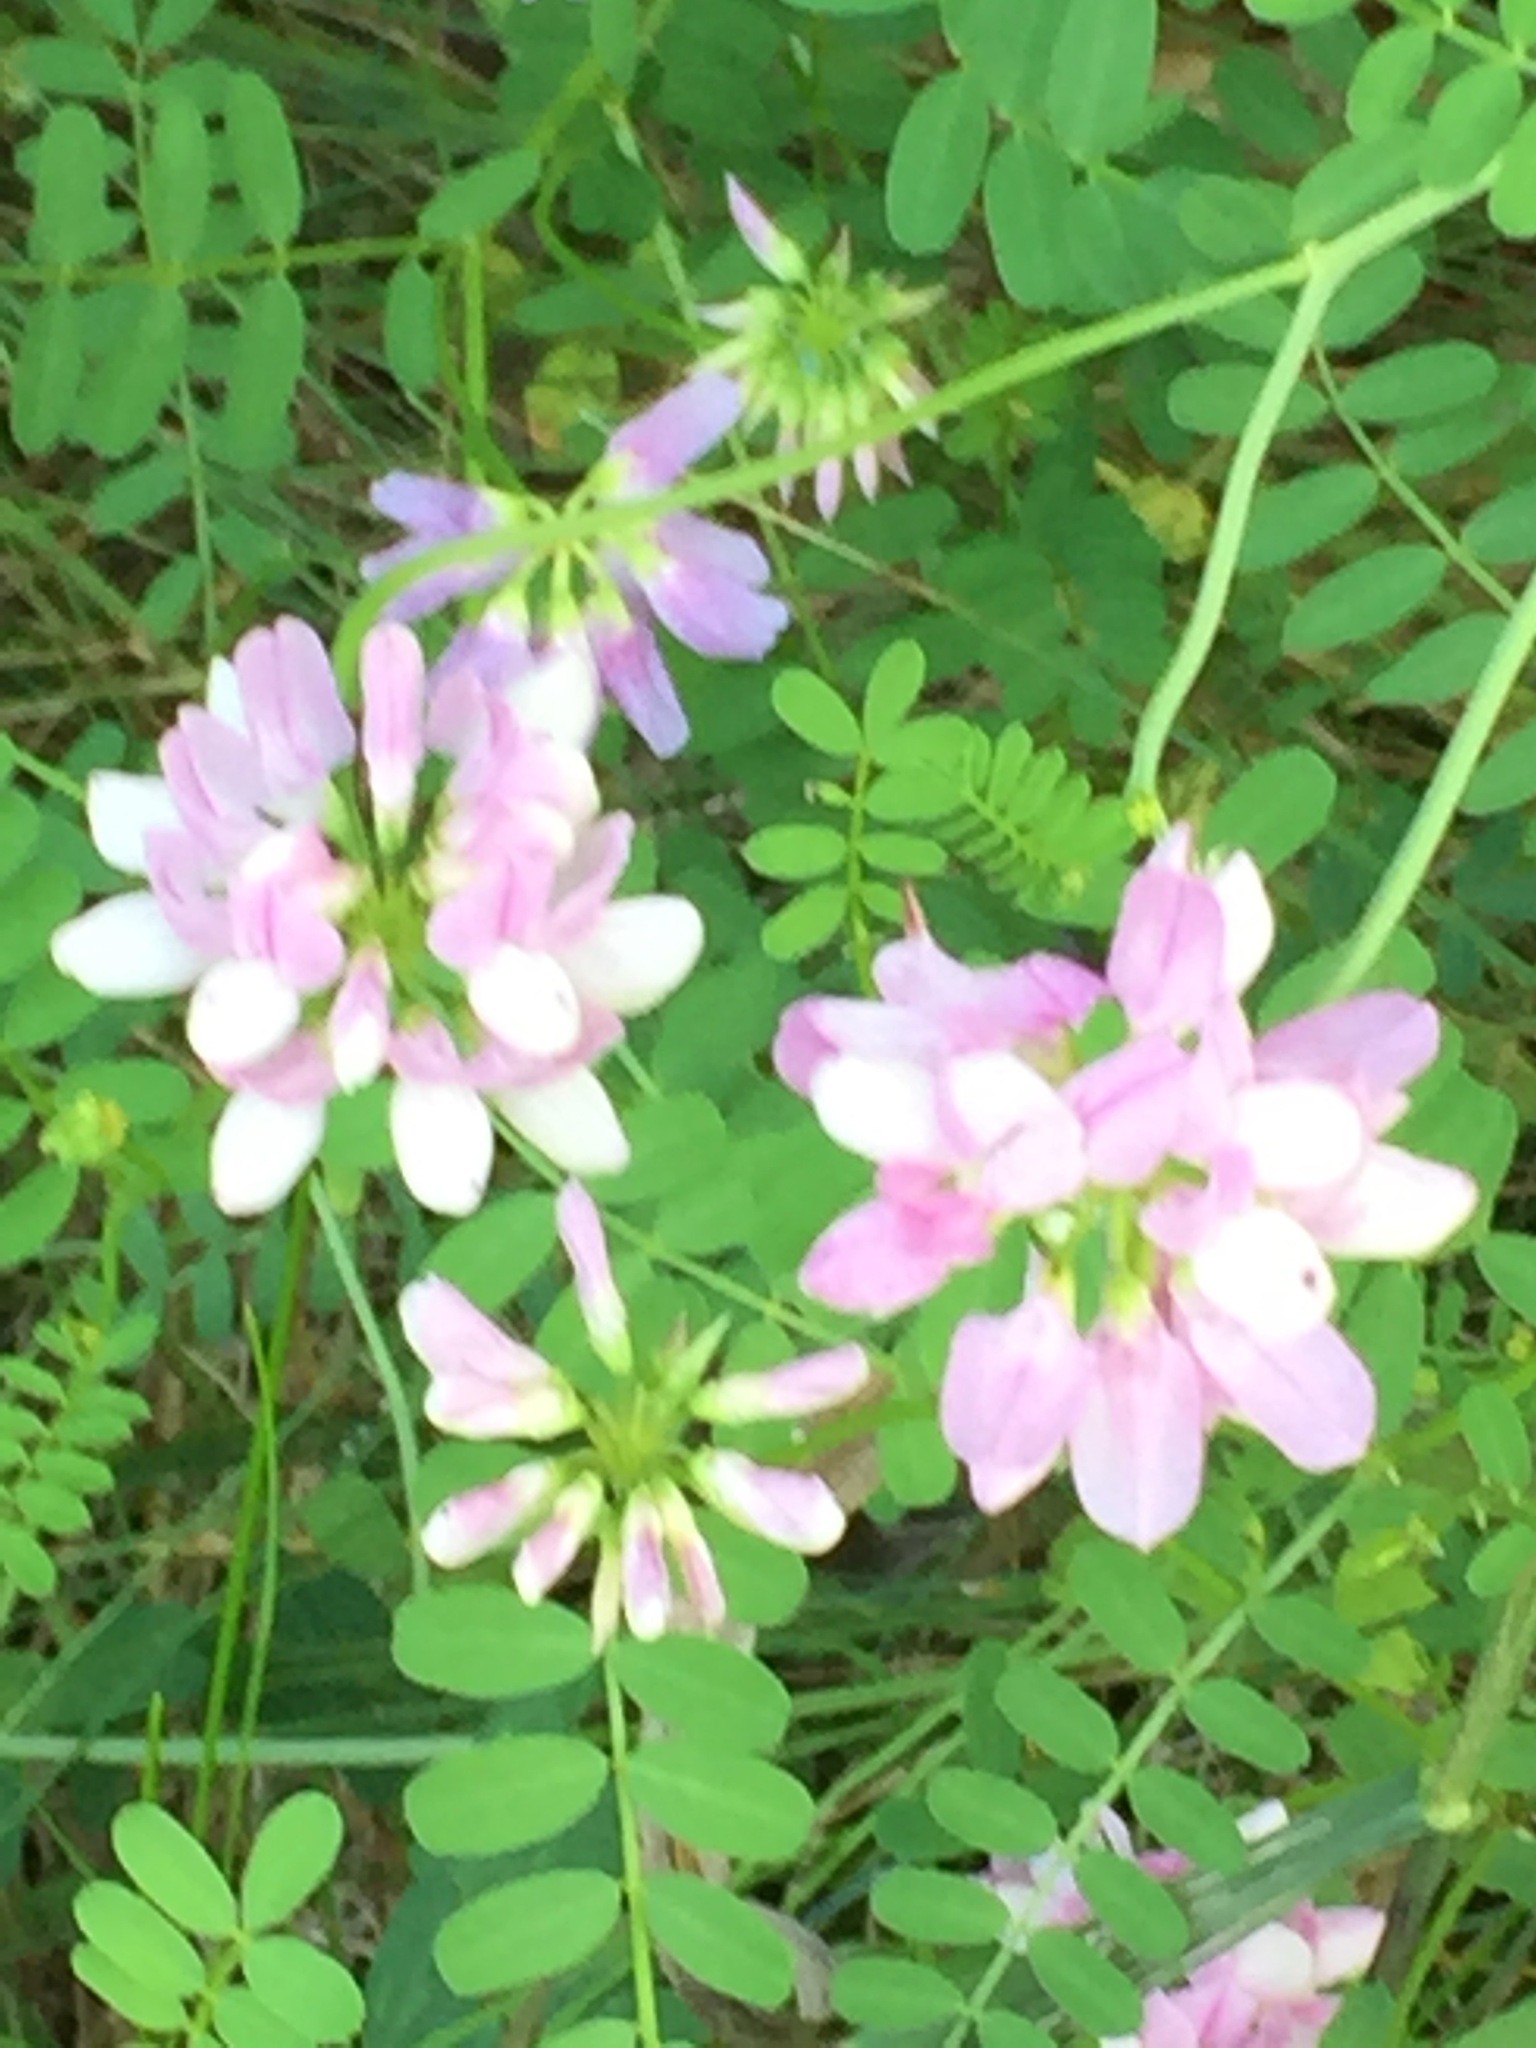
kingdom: Plantae
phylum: Tracheophyta
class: Magnoliopsida
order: Fabales
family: Fabaceae
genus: Coronilla
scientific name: Coronilla varia
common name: Crownvetch
